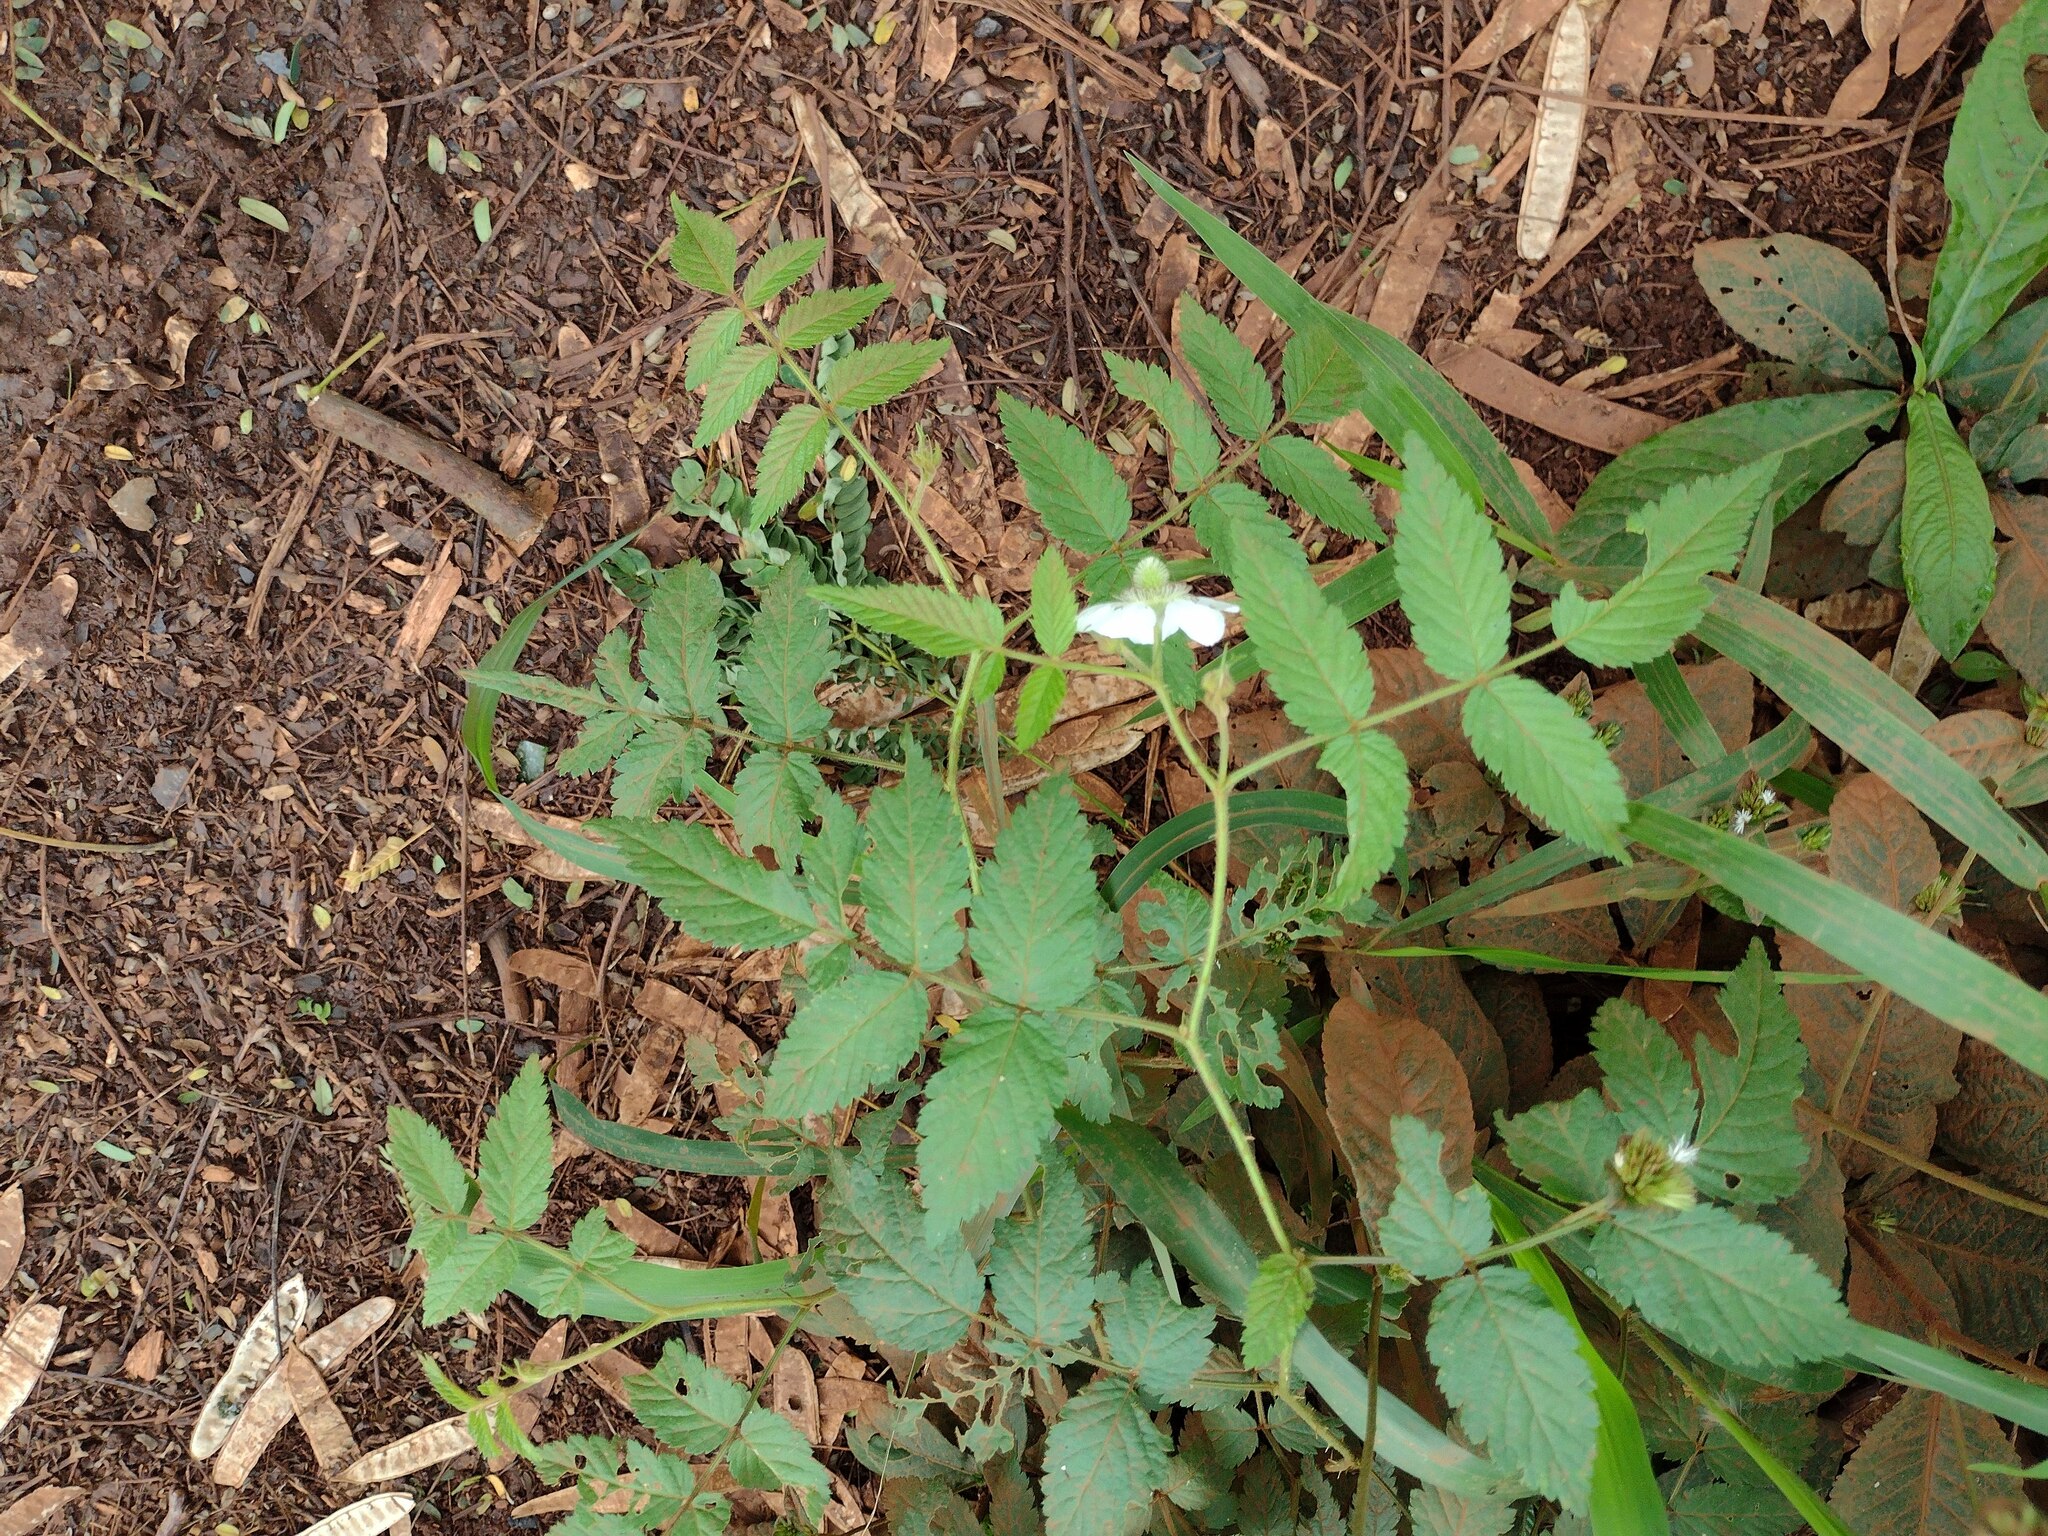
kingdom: Plantae
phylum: Tracheophyta
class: Magnoliopsida
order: Rosales
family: Rosaceae
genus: Rubus
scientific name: Rubus rosifolius
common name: Roseleaf raspberry
